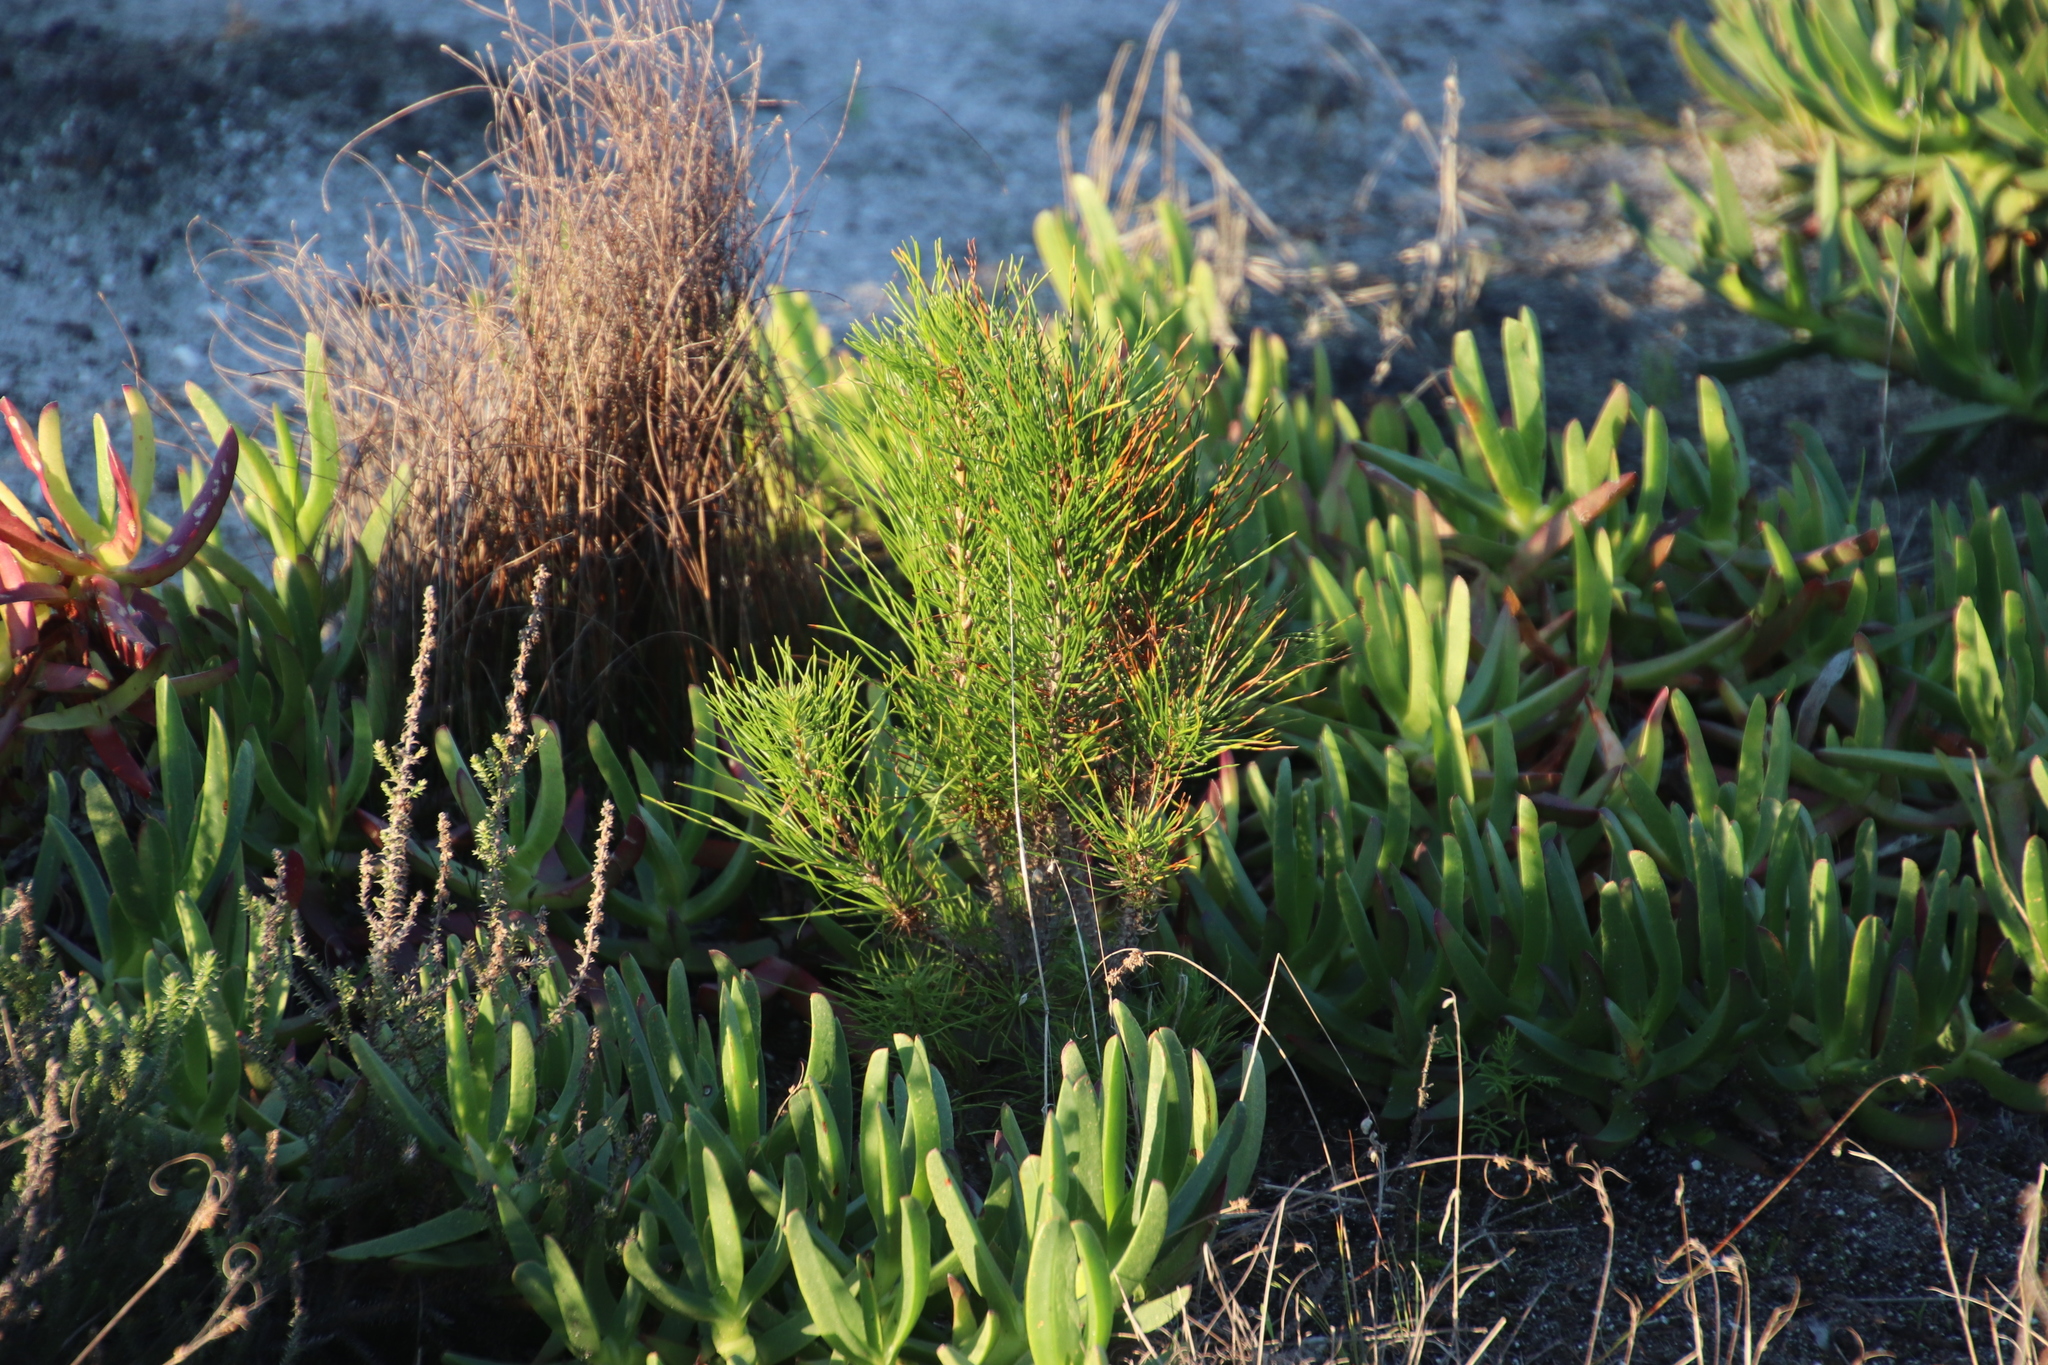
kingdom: Plantae
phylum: Tracheophyta
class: Pinopsida
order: Pinales
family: Pinaceae
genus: Pinus
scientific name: Pinus radiata
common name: Monterey pine
